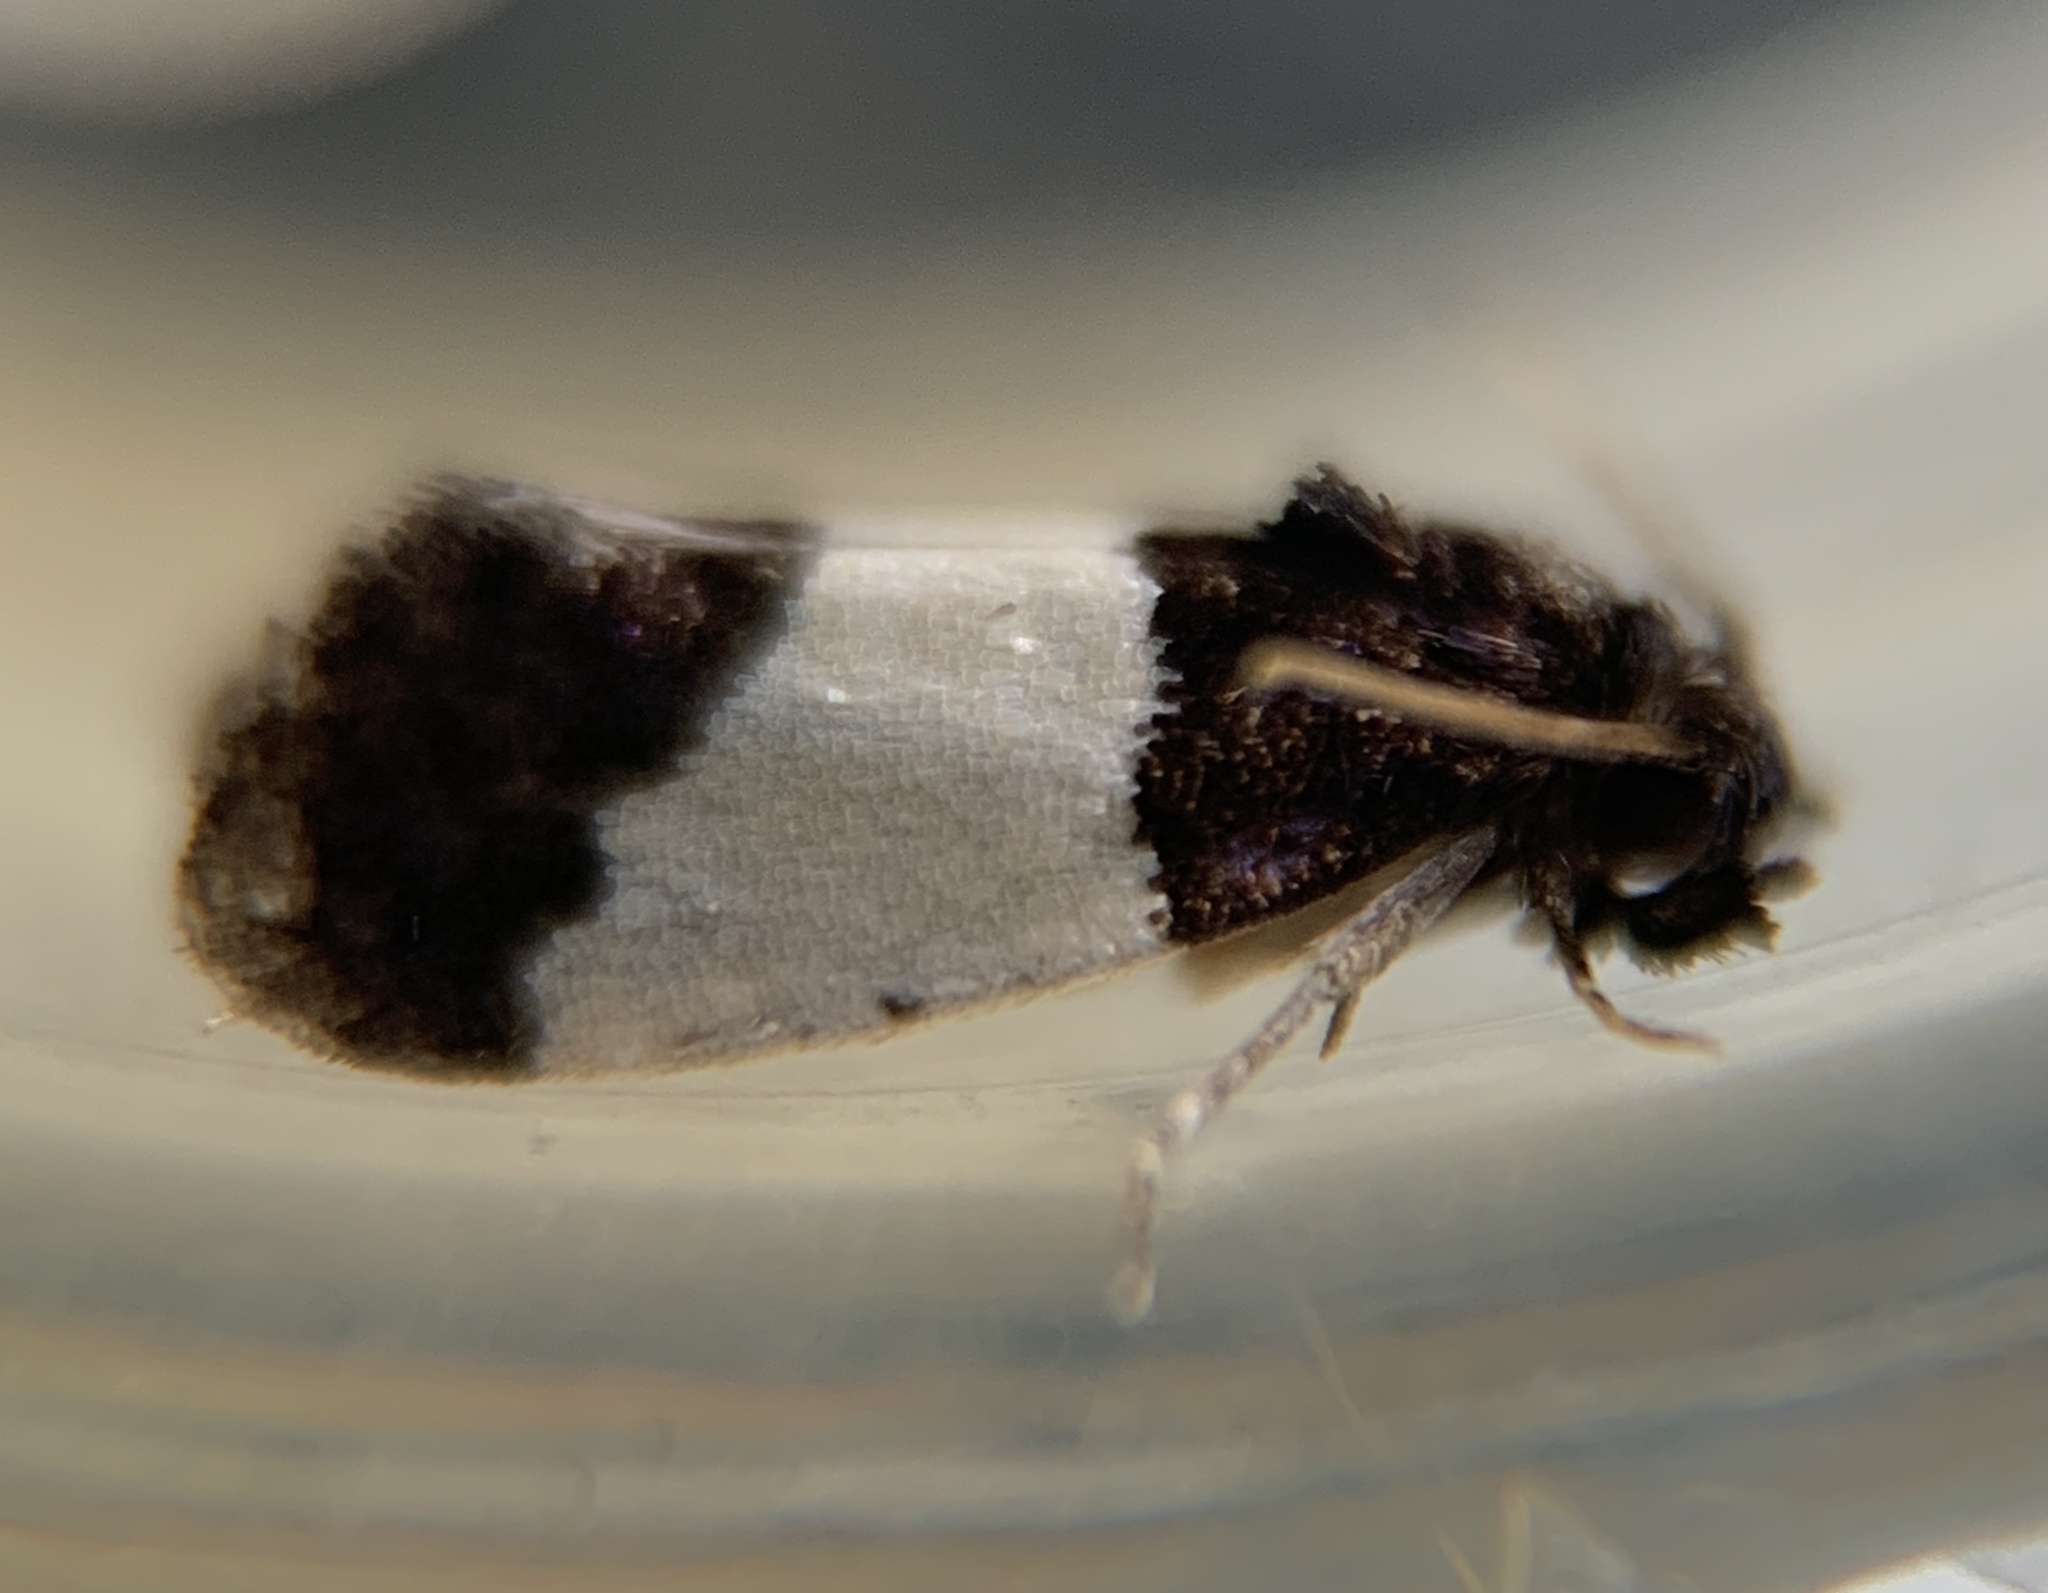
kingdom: Animalia
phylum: Arthropoda
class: Insecta
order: Lepidoptera
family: Psychidae
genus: Kearfottia
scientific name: Kearfottia albifasciella
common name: White-patched kearfottia
